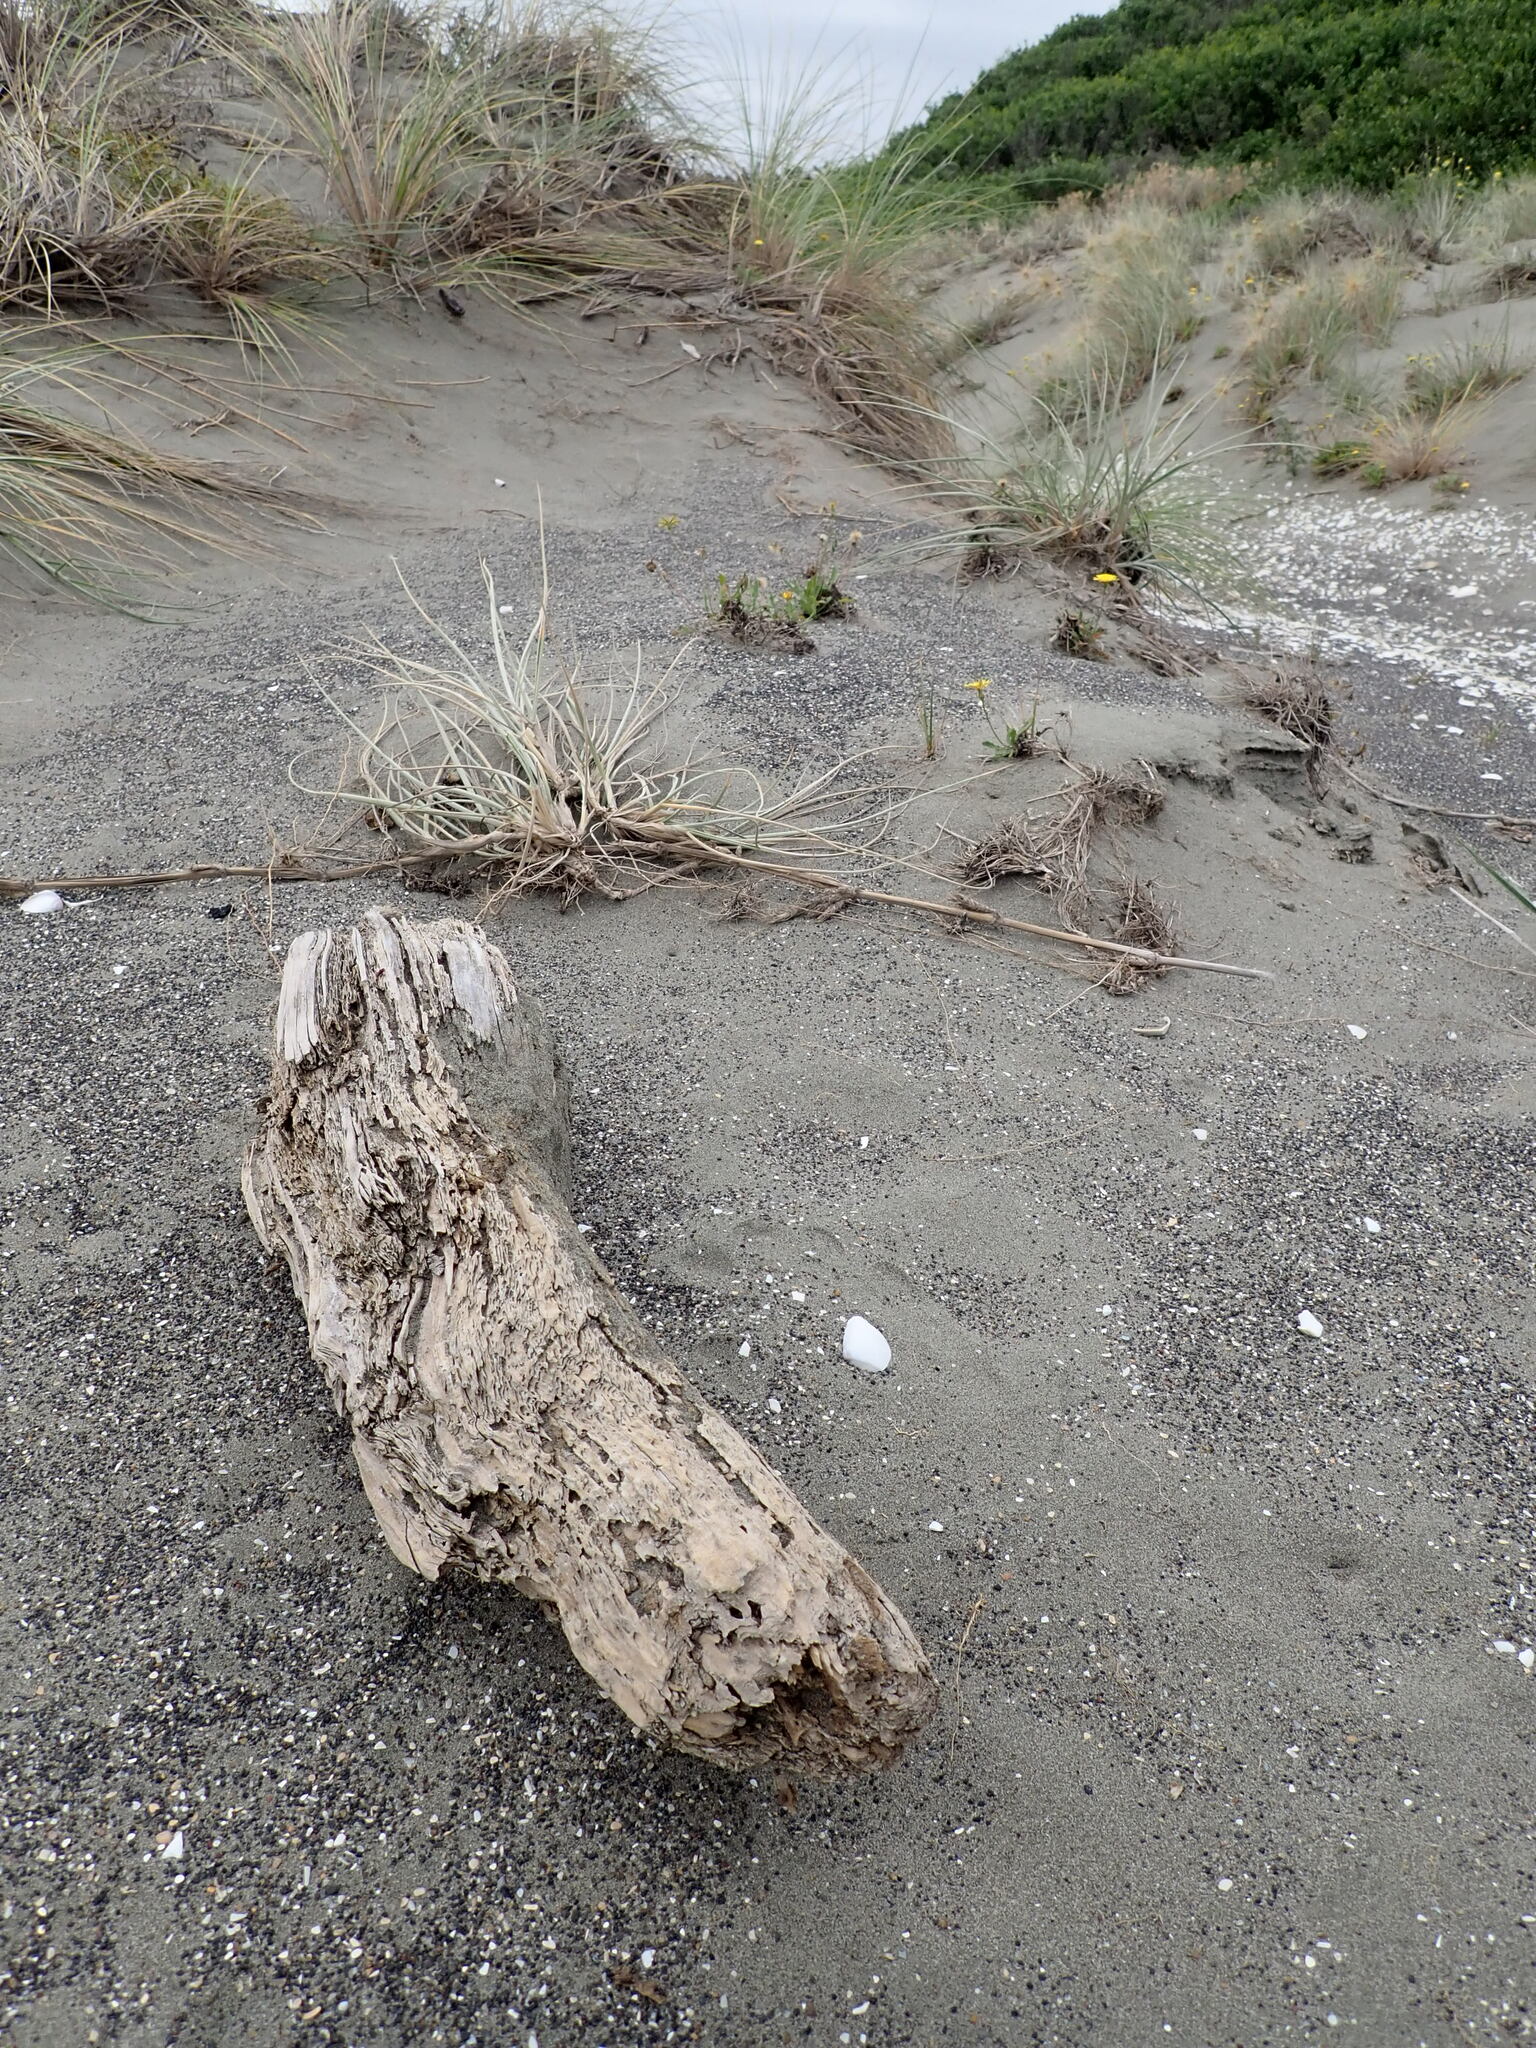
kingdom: Animalia
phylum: Arthropoda
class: Arachnida
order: Araneae
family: Theridiidae
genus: Steatoda
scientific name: Steatoda capensis
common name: Cobweb weaver
